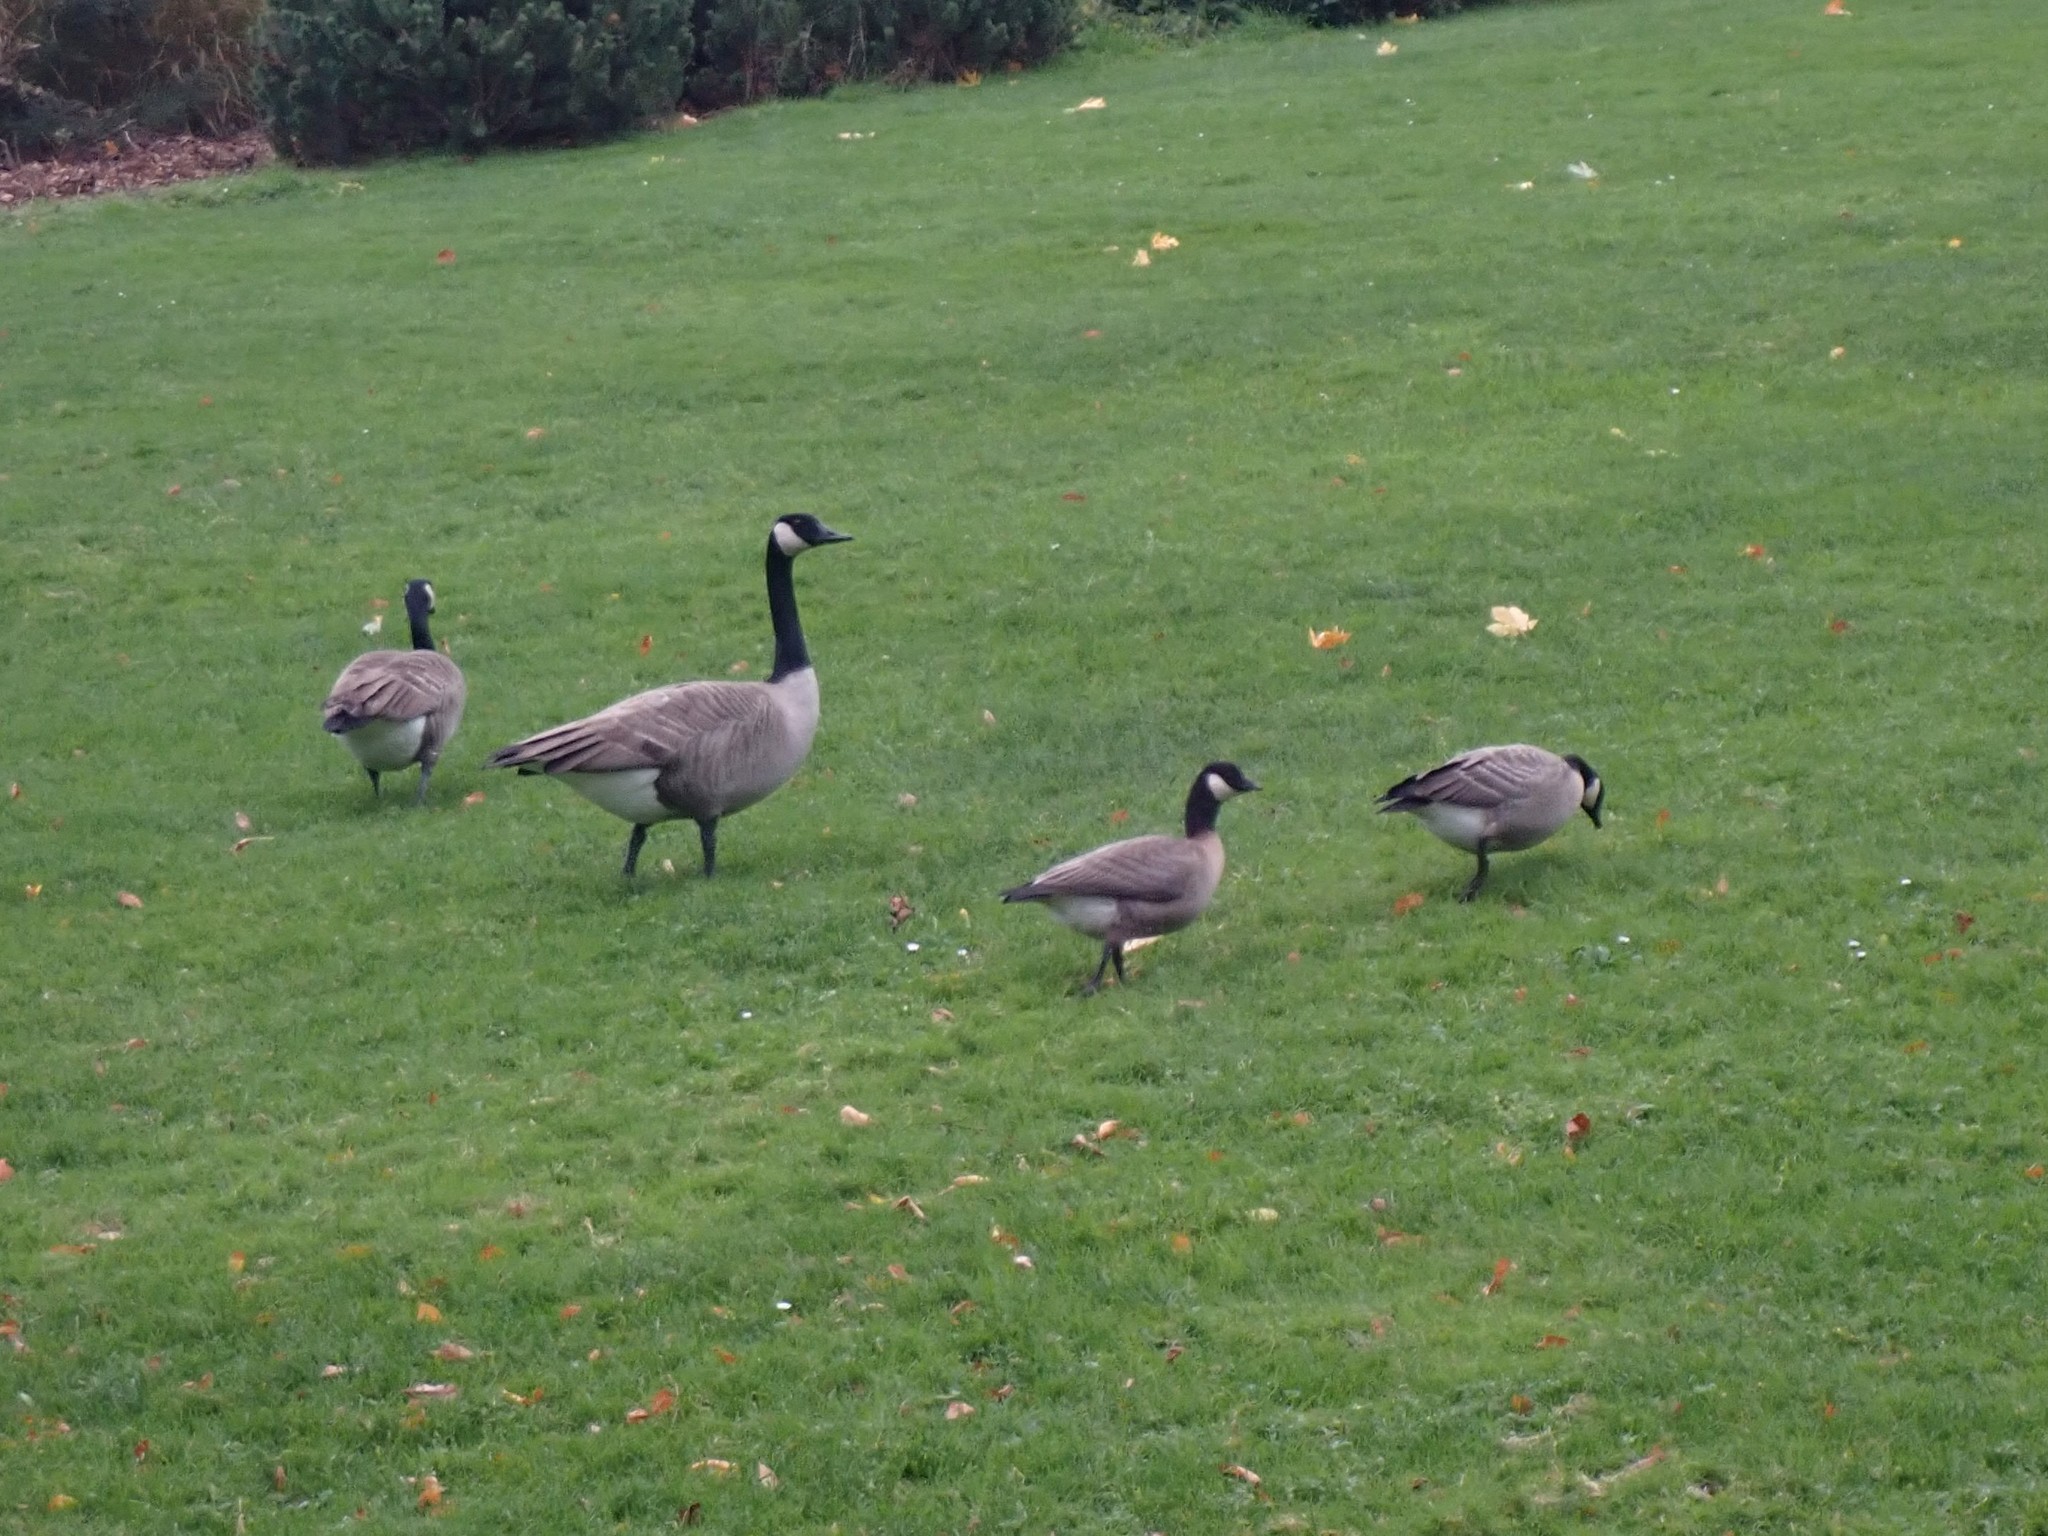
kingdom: Animalia
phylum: Chordata
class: Aves
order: Anseriformes
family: Anatidae
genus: Branta
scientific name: Branta hutchinsii
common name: Cackling goose
